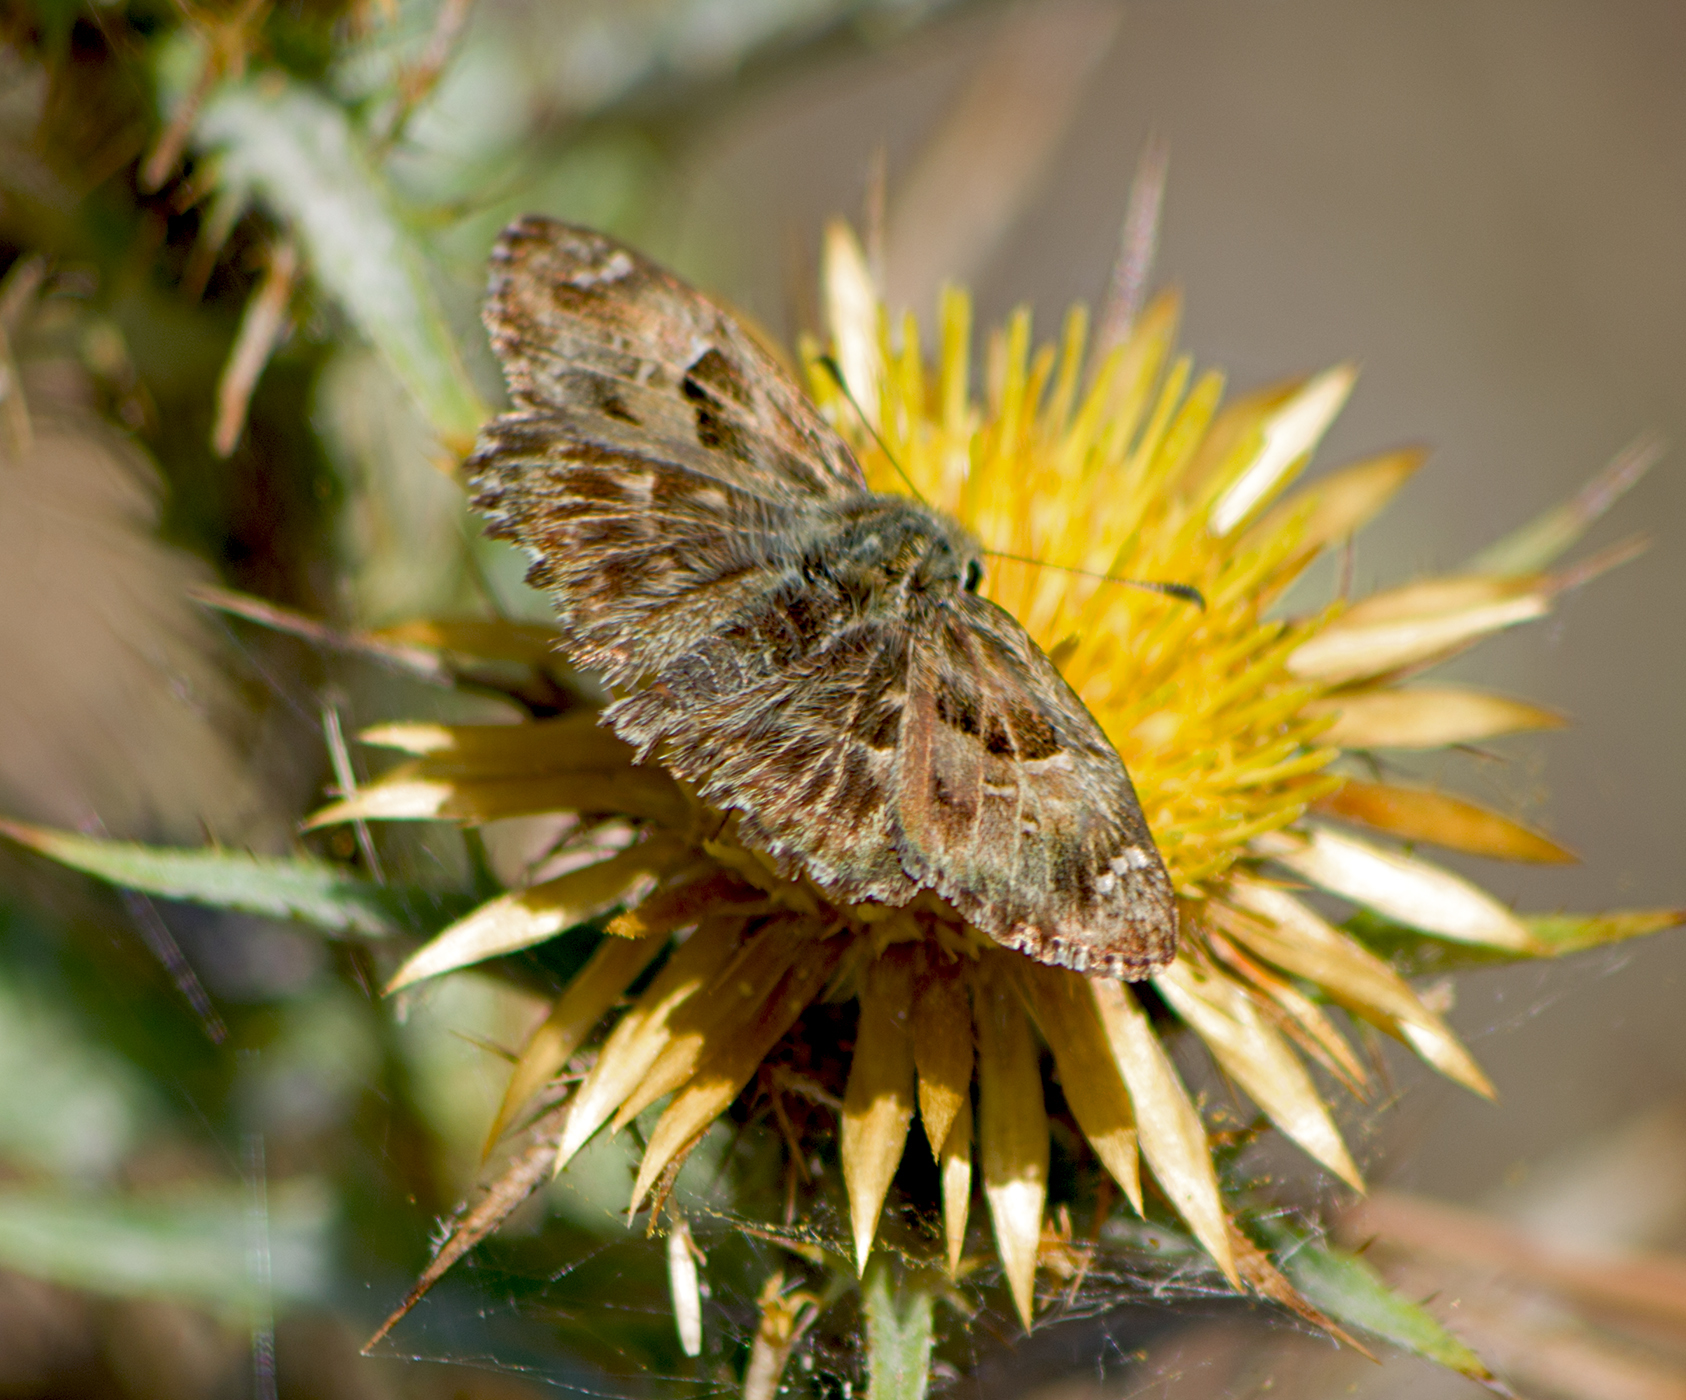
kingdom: Animalia
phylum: Arthropoda
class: Insecta
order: Lepidoptera
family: Hesperiidae
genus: Carcharodus
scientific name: Carcharodus alceae
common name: Mallow skipper
